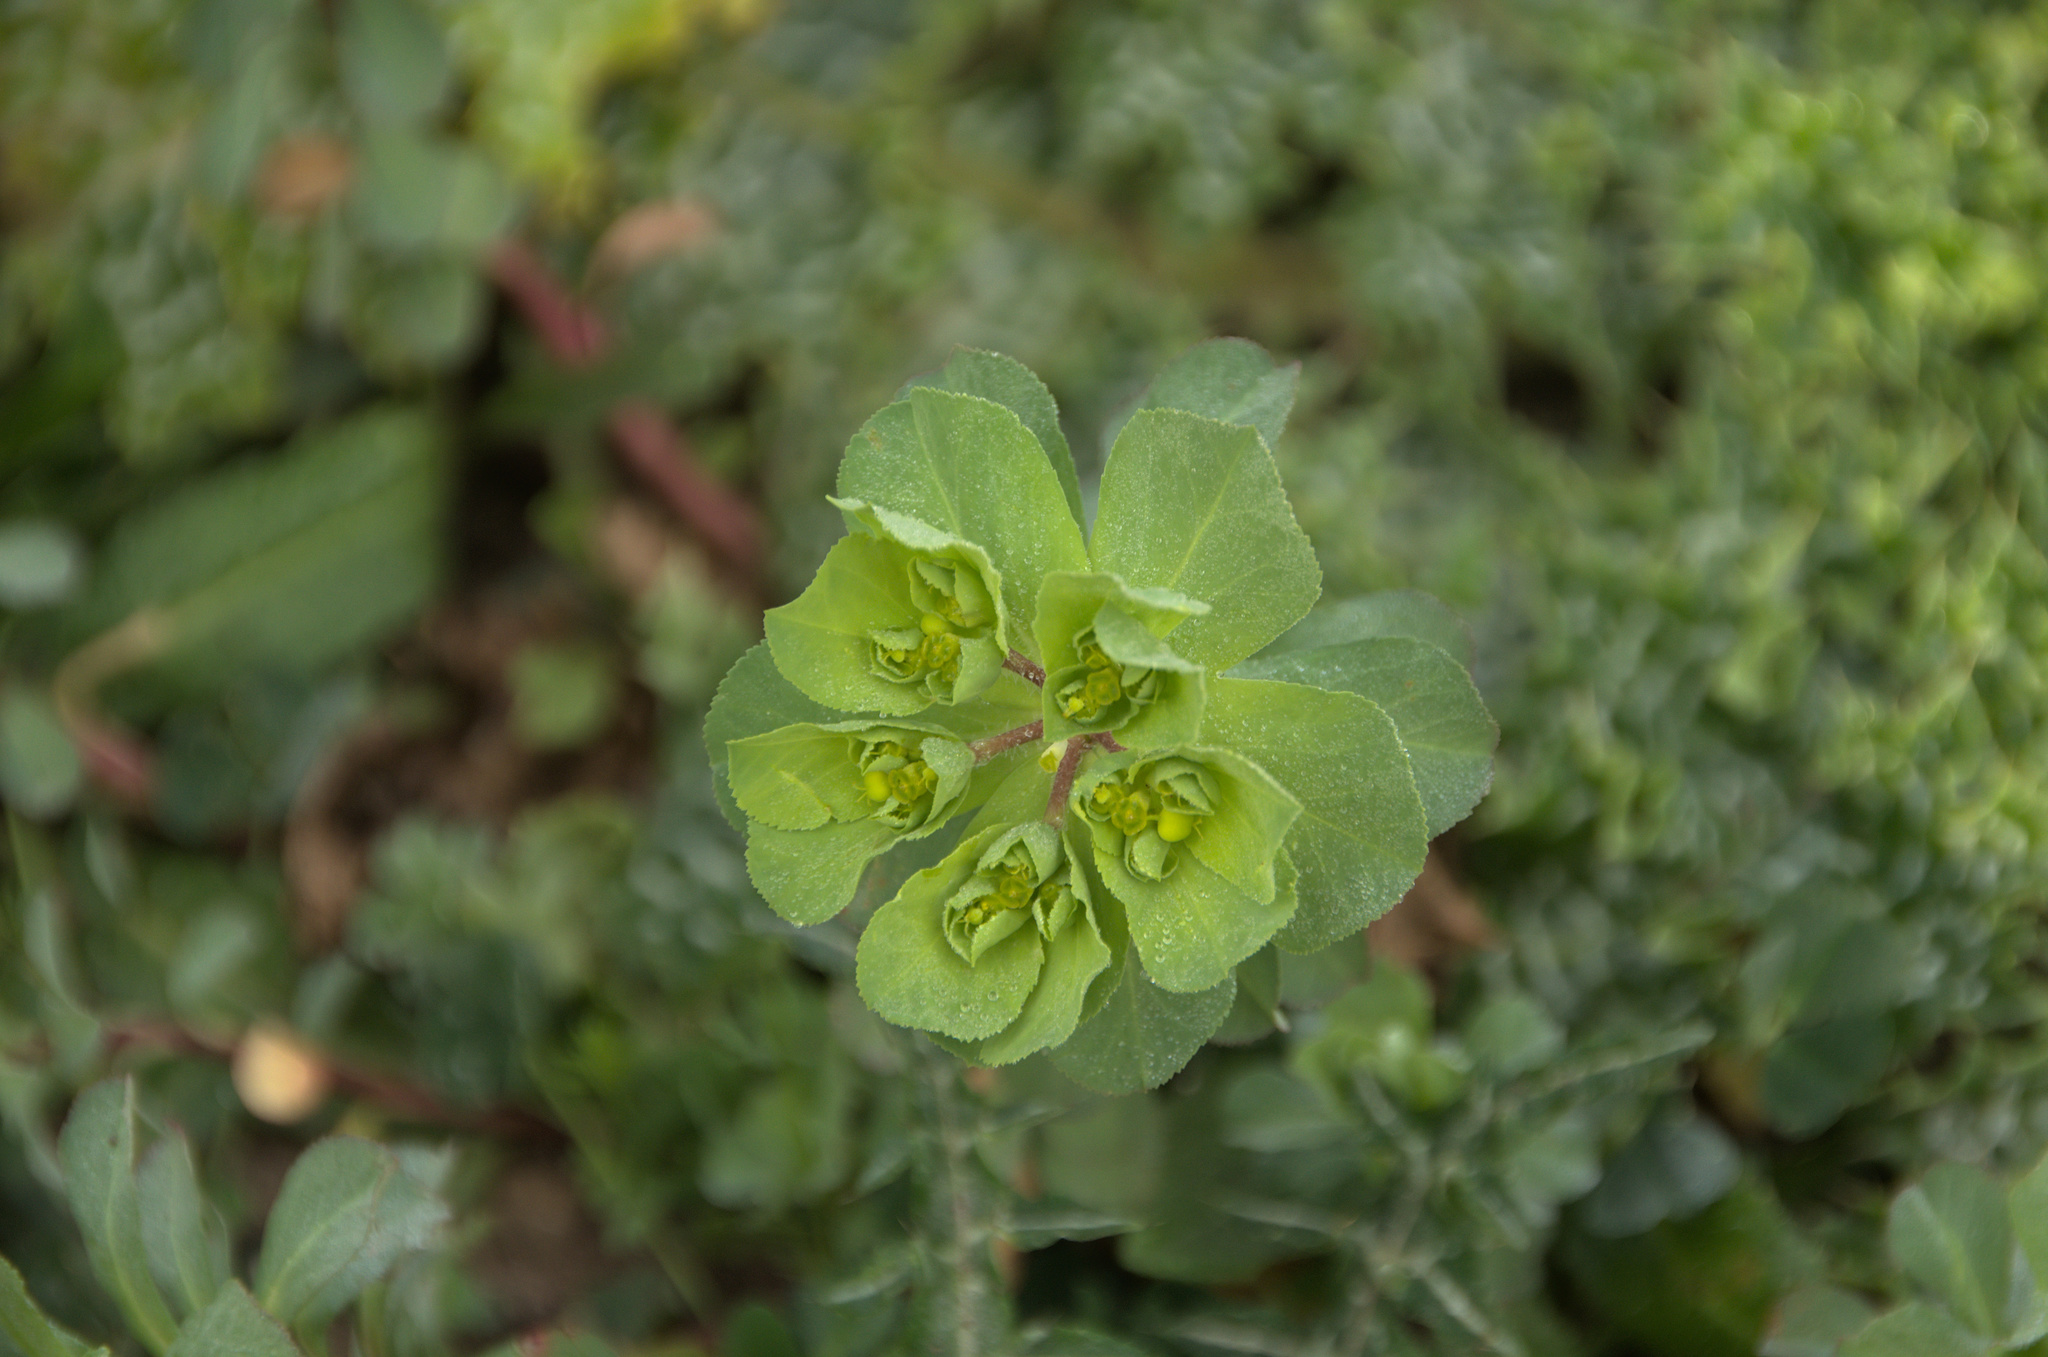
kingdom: Plantae
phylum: Tracheophyta
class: Magnoliopsida
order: Malpighiales
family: Euphorbiaceae
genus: Euphorbia
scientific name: Euphorbia helioscopia
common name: Sun spurge
